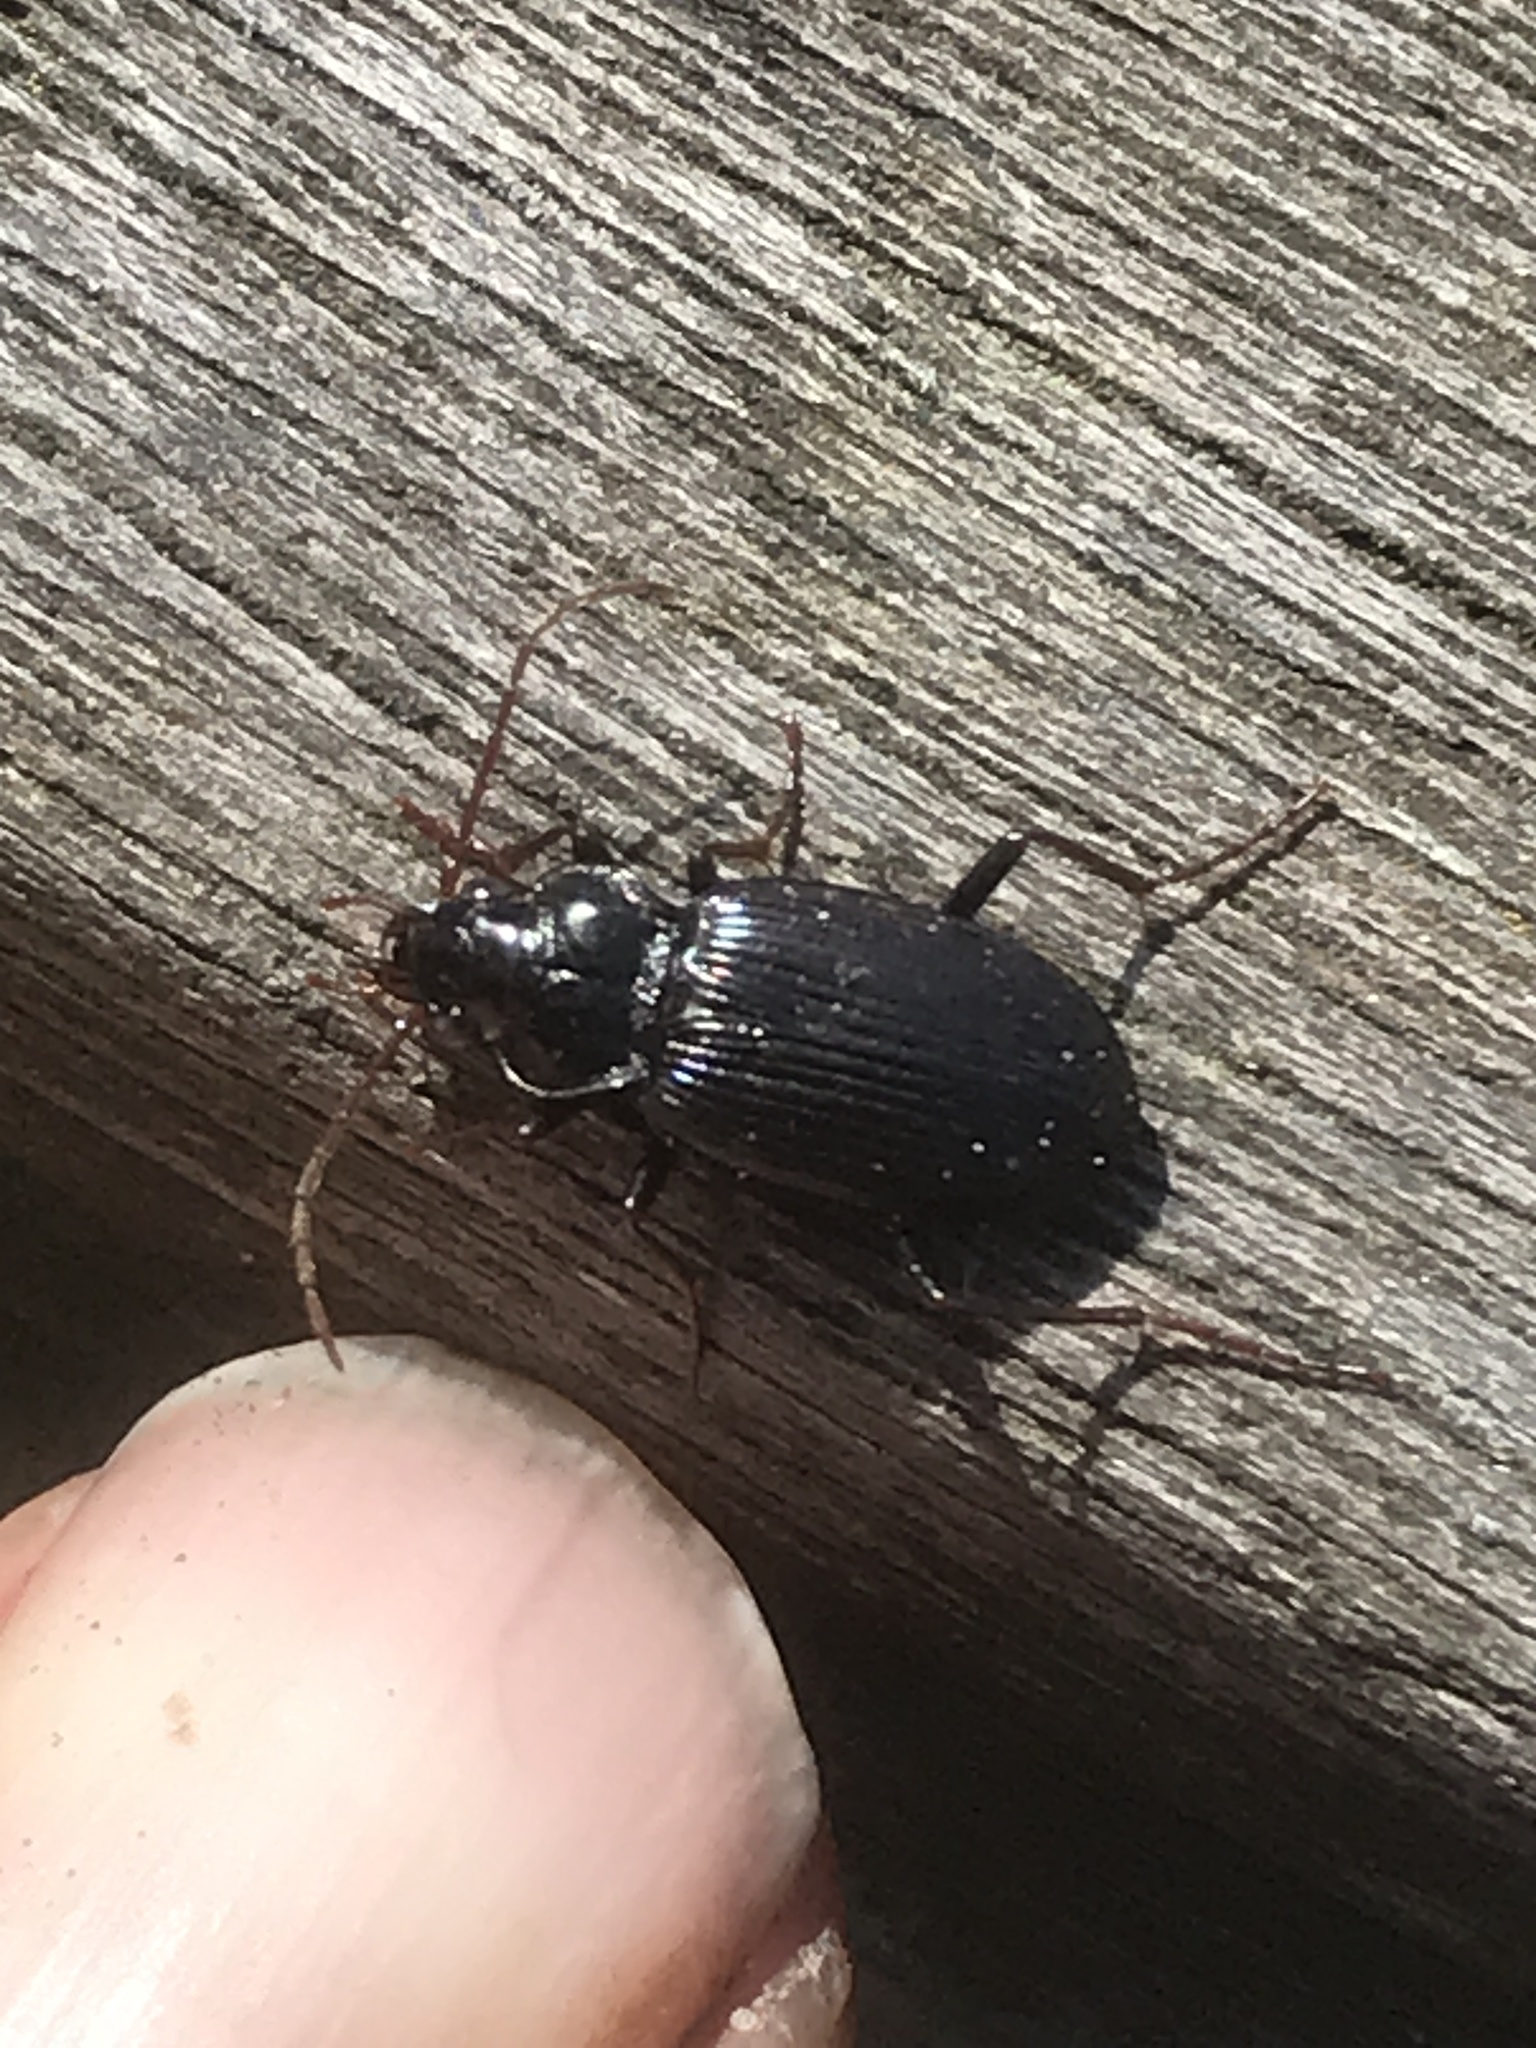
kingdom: Animalia
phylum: Arthropoda
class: Insecta
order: Coleoptera
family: Carabidae
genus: Nebria
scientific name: Nebria brevicollis
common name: Short-necked gazelle beetle
